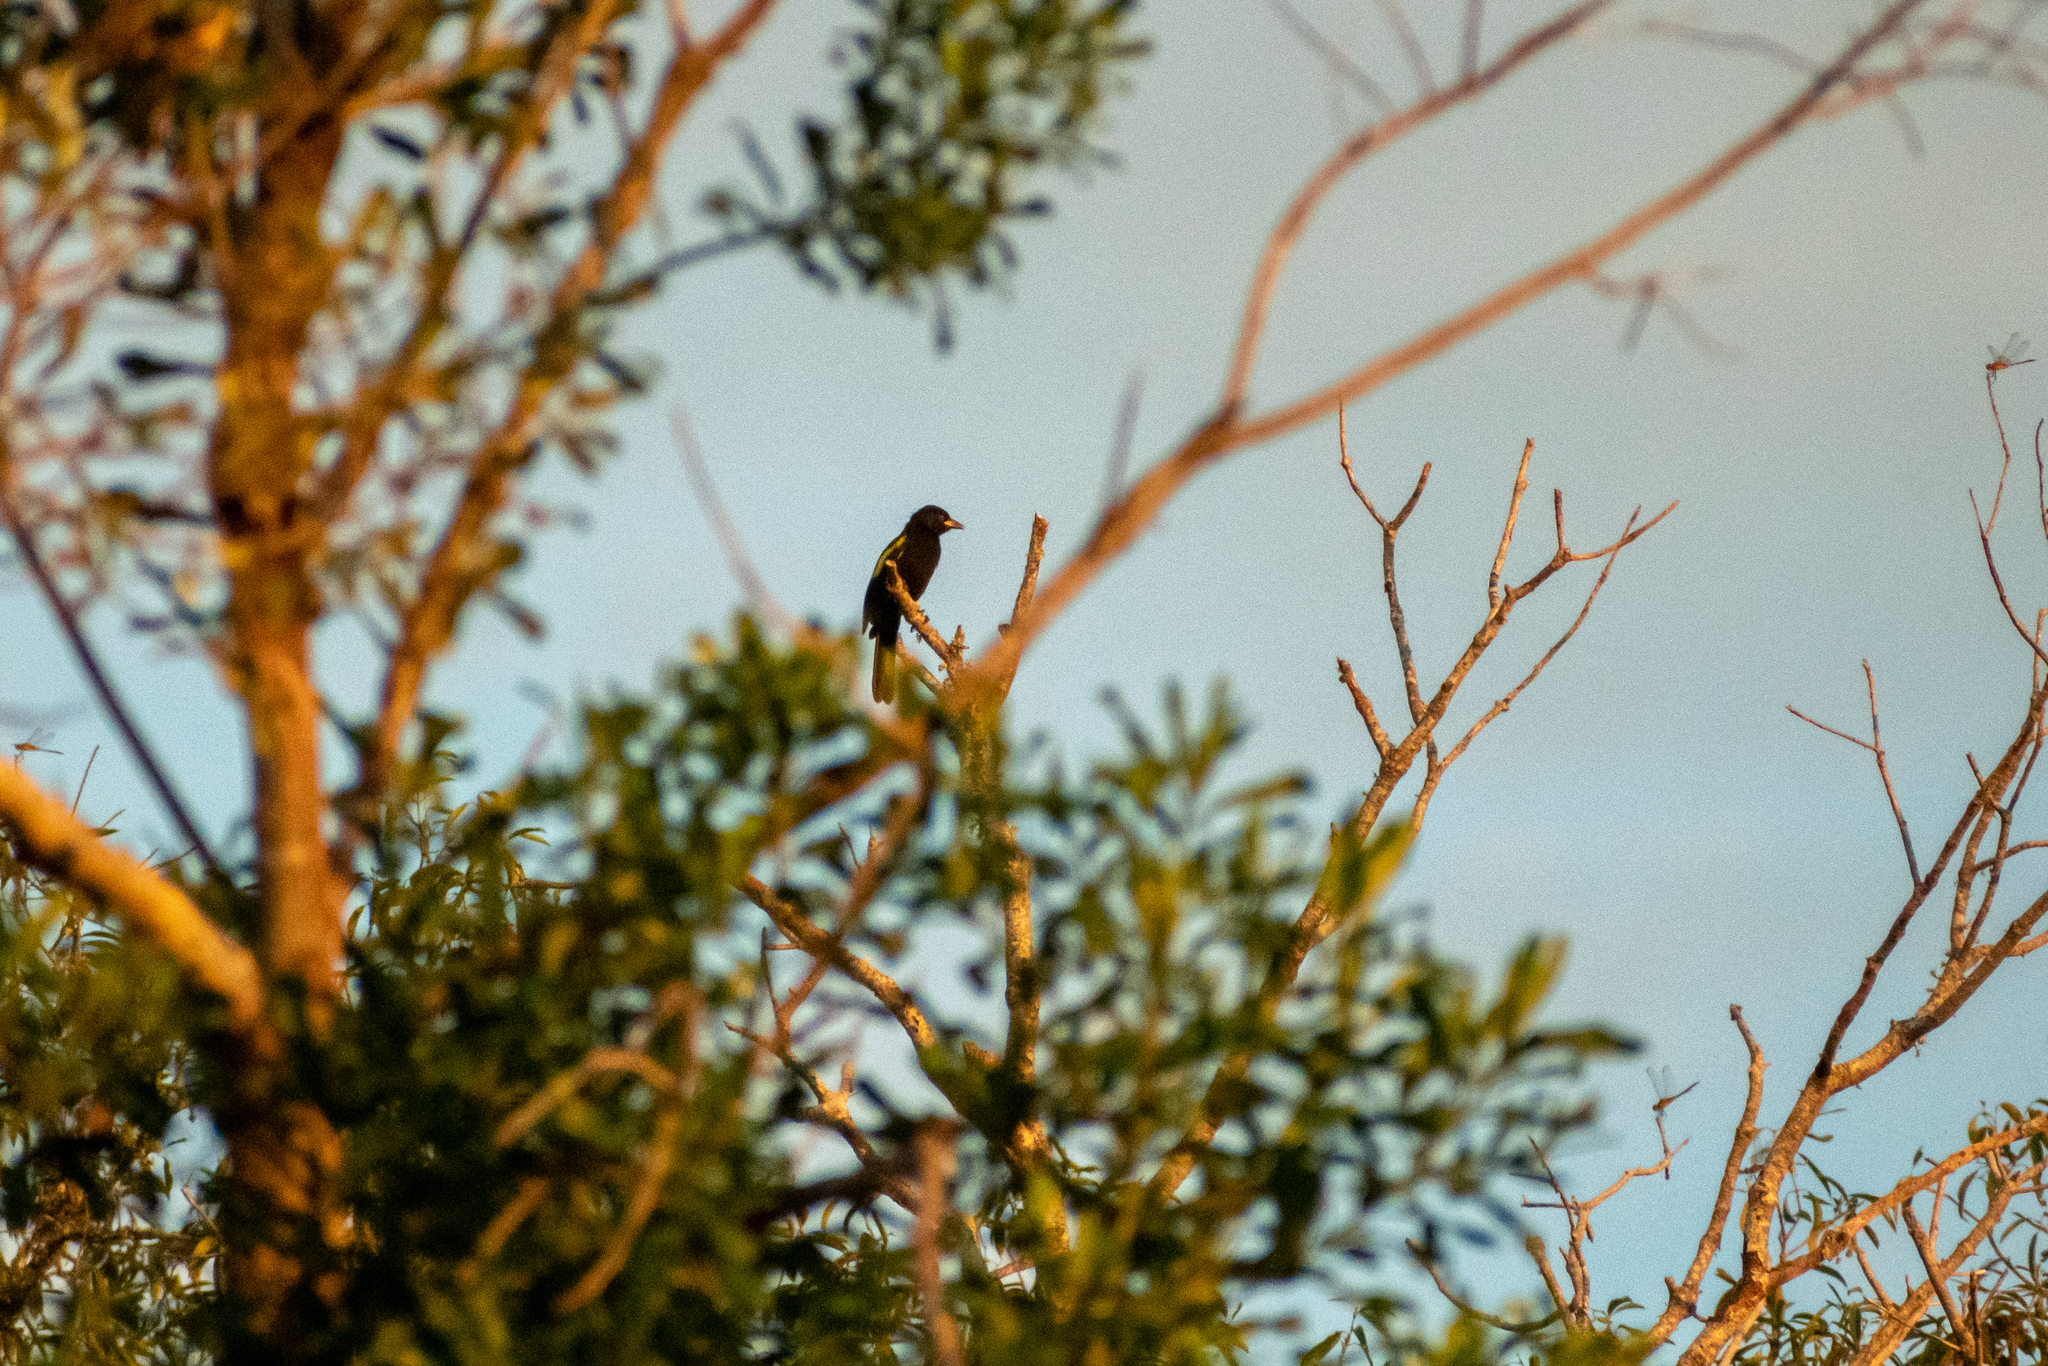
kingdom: Animalia
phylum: Chordata
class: Aves
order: Passeriformes
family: Icteridae
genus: Cacicus
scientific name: Cacicus chrysopterus
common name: Golden-winged cacique
